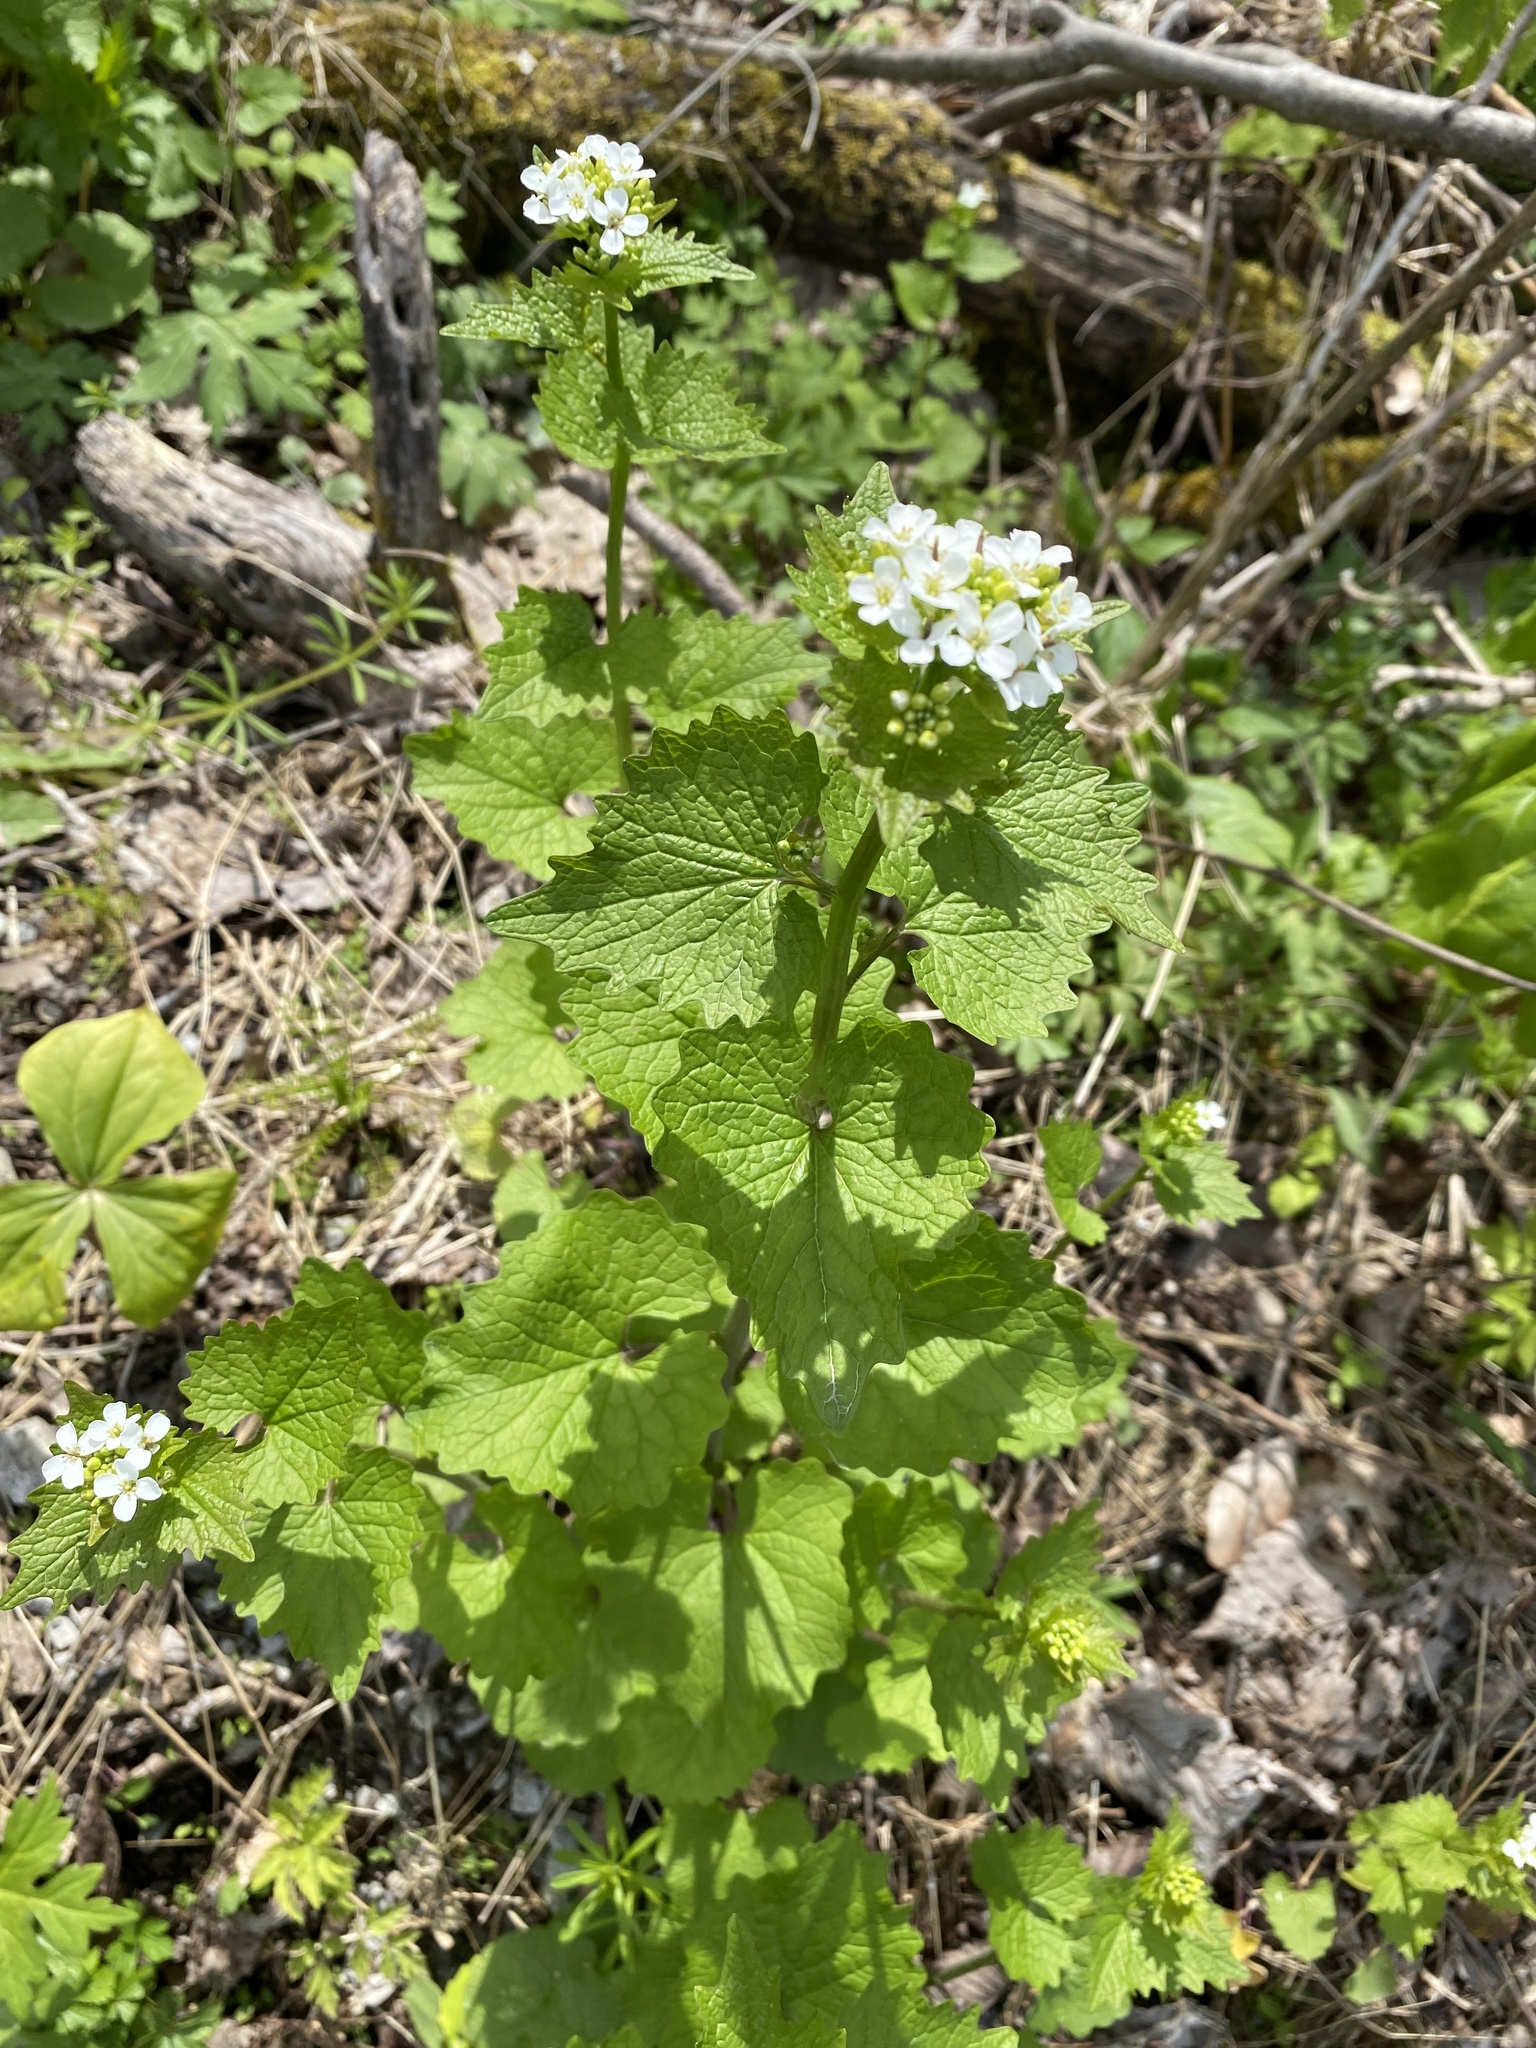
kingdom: Plantae
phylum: Tracheophyta
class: Magnoliopsida
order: Brassicales
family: Brassicaceae
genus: Alliaria
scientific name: Alliaria petiolata
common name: Garlic mustard
